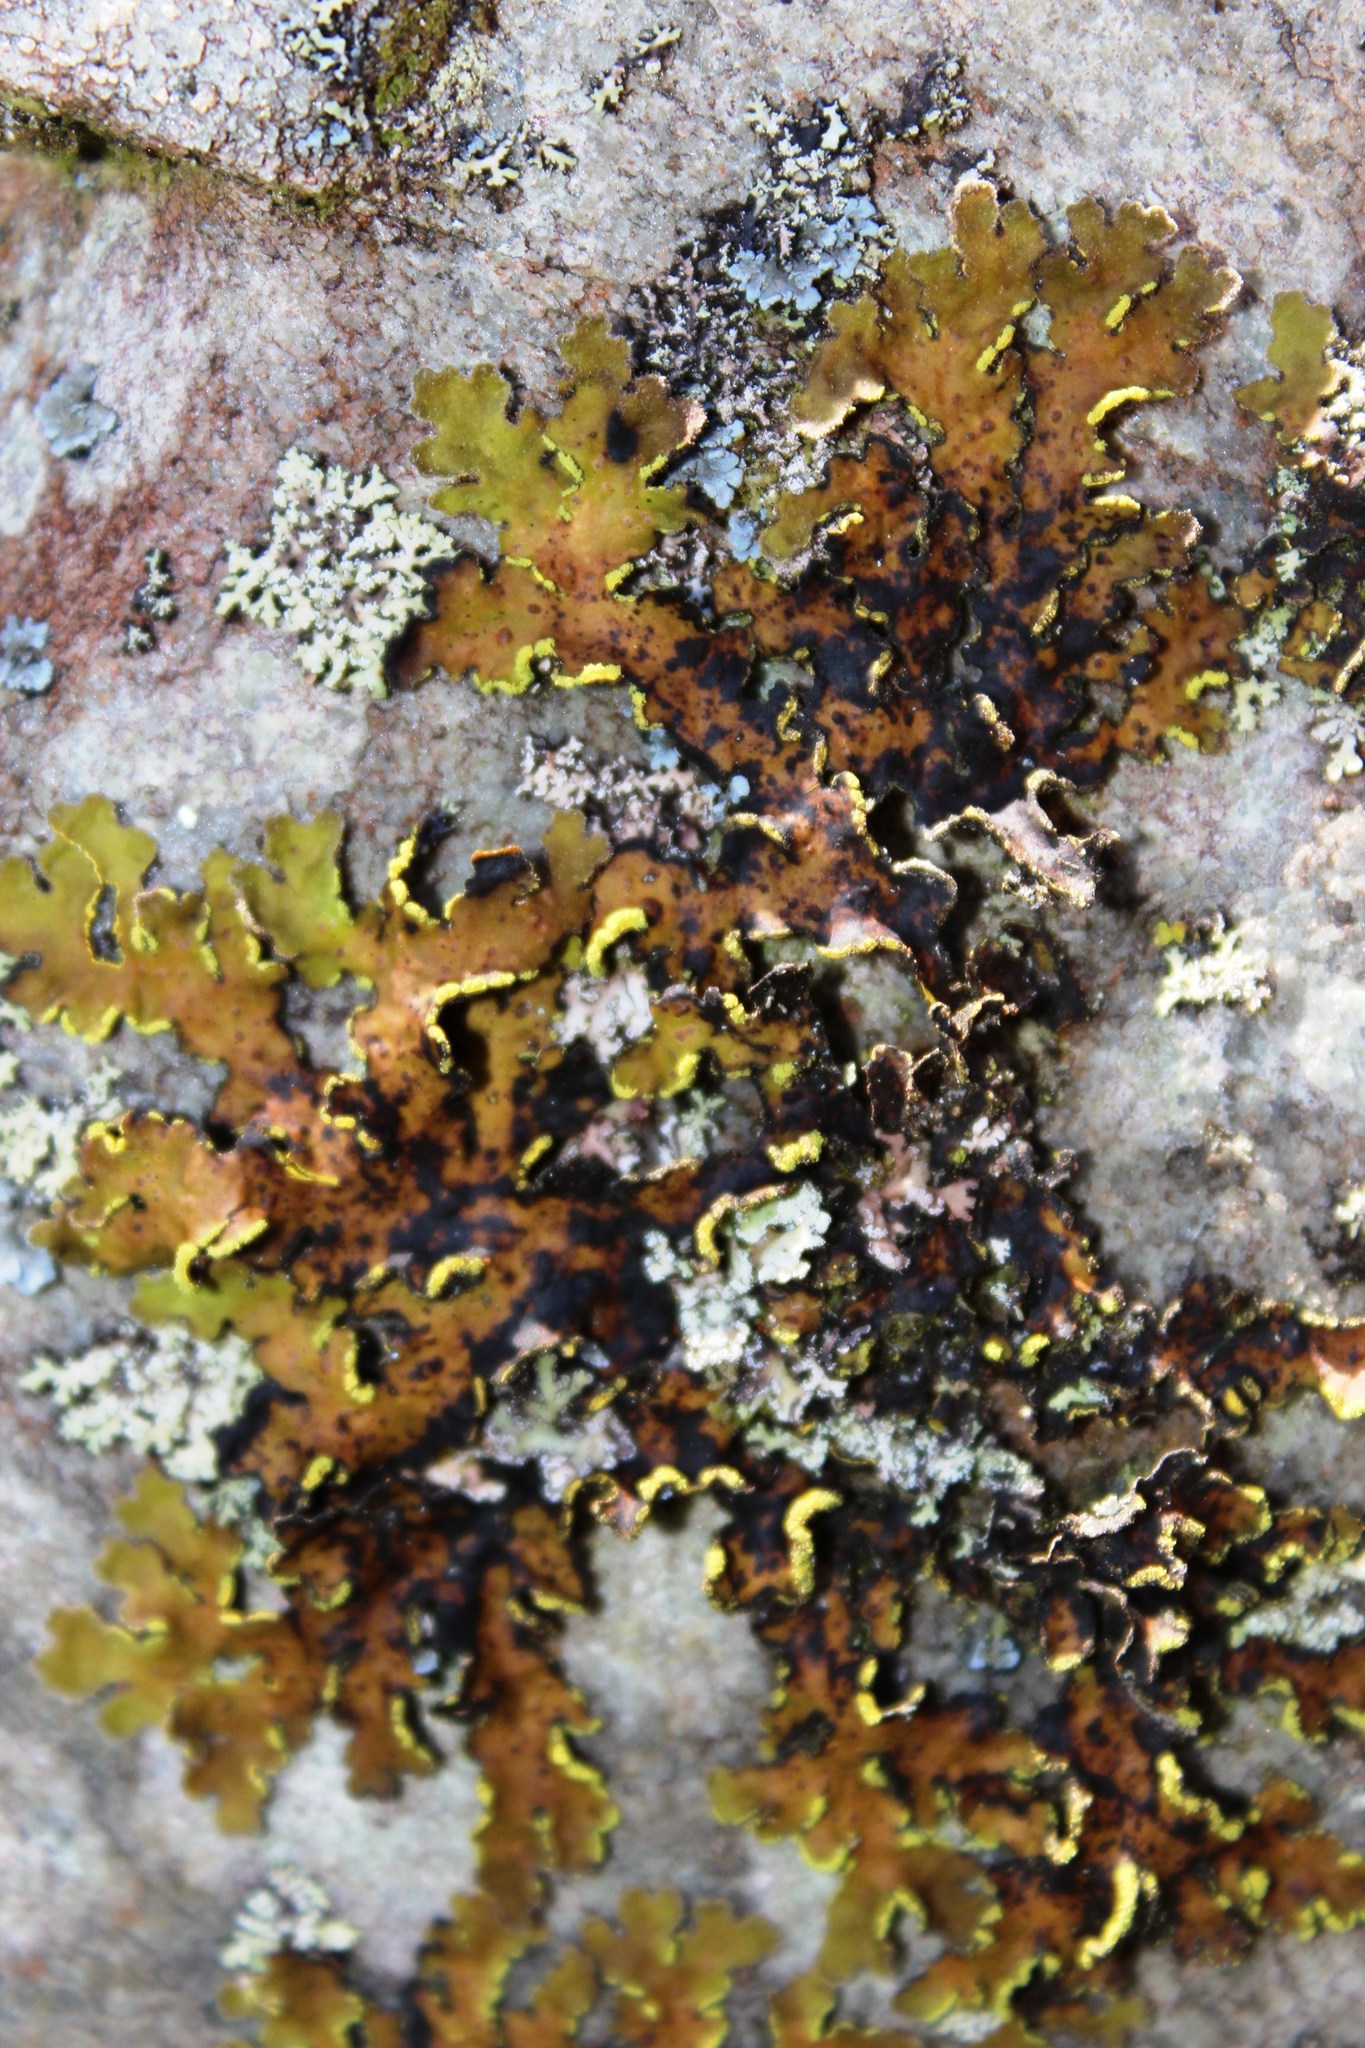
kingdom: Fungi
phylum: Ascomycota
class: Lecanoromycetes
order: Peltigerales
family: Lobariaceae
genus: Pseudocyphellaria
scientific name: Pseudocyphellaria aurata
